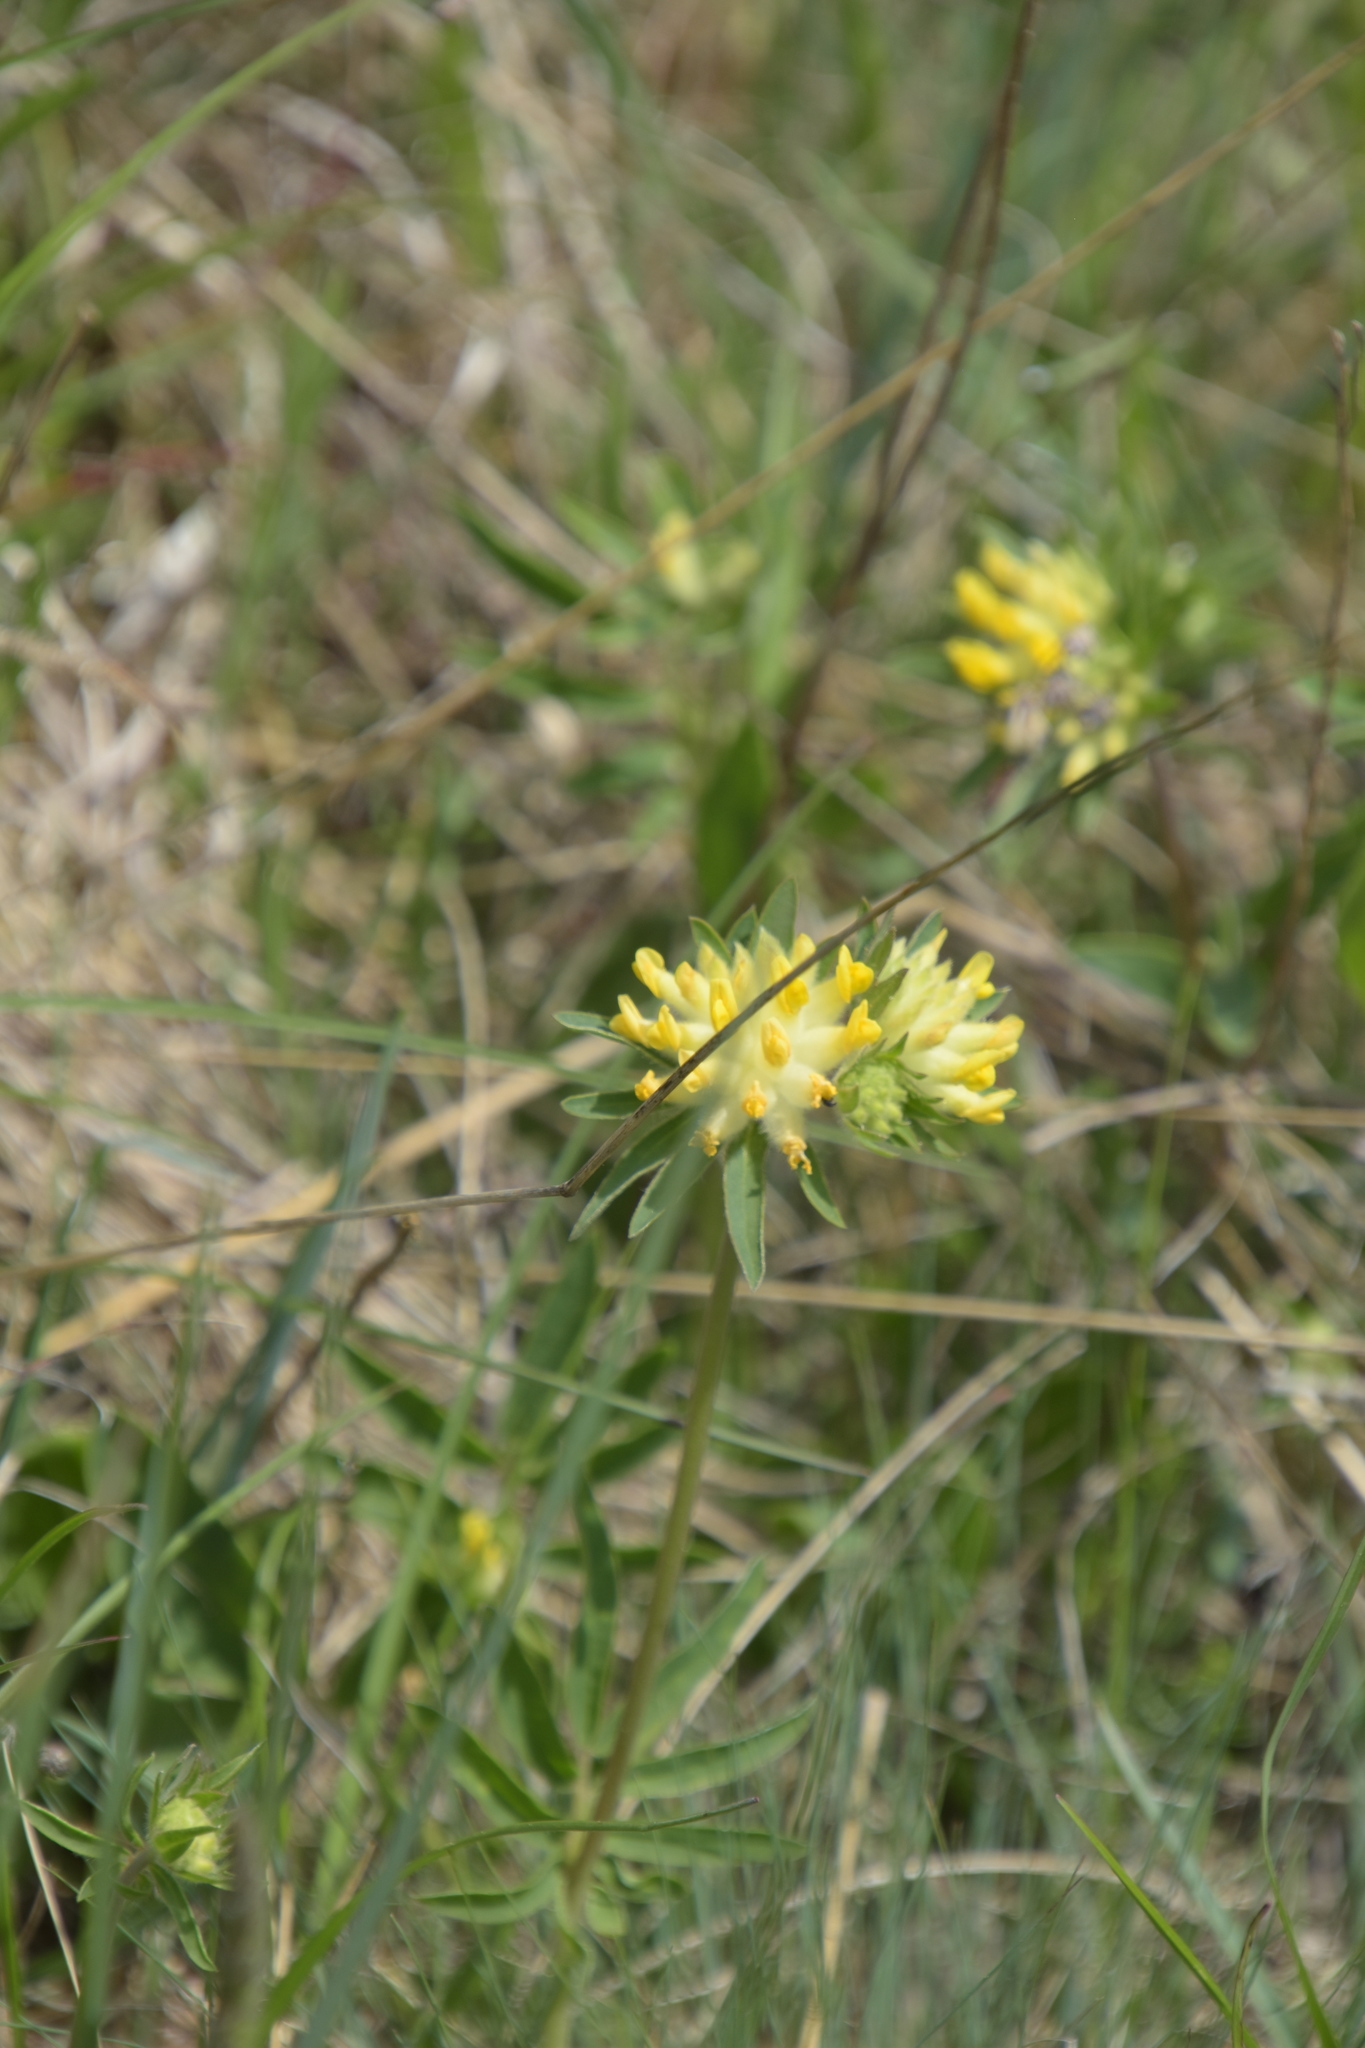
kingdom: Plantae
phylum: Tracheophyta
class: Magnoliopsida
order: Fabales
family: Fabaceae
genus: Anthyllis
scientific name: Anthyllis vulneraria
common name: Kidney vetch
